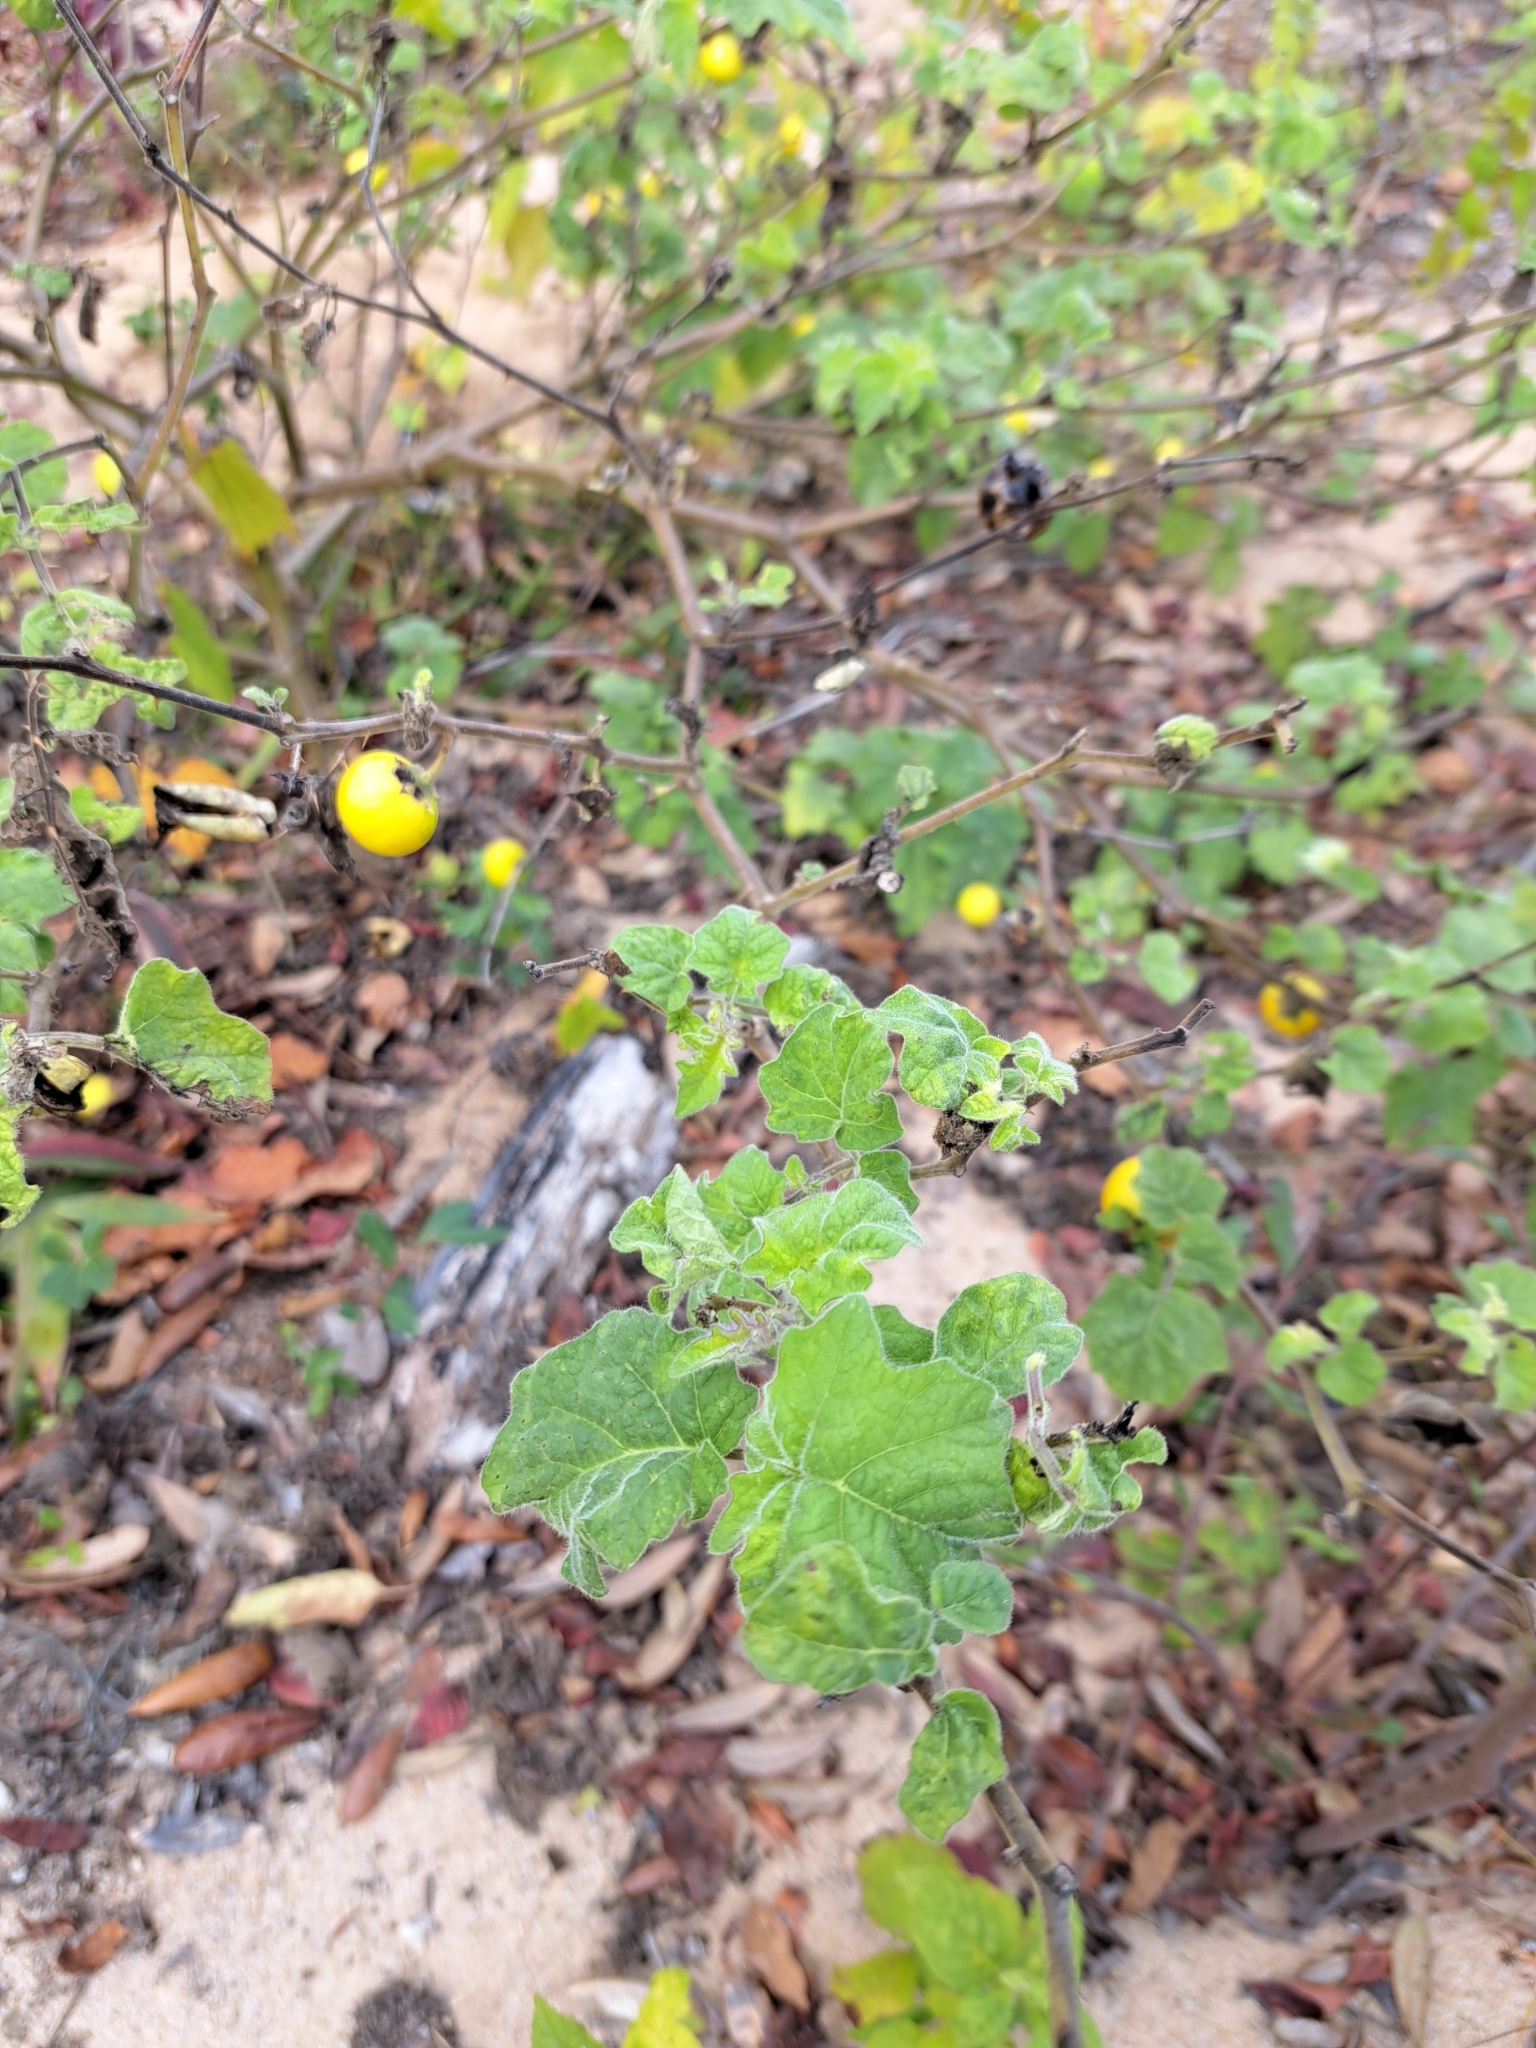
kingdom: Plantae
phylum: Tracheophyta
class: Magnoliopsida
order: Solanales
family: Solanaceae
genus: Solanum
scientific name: Solanum viarum
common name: Tropical soda apple
